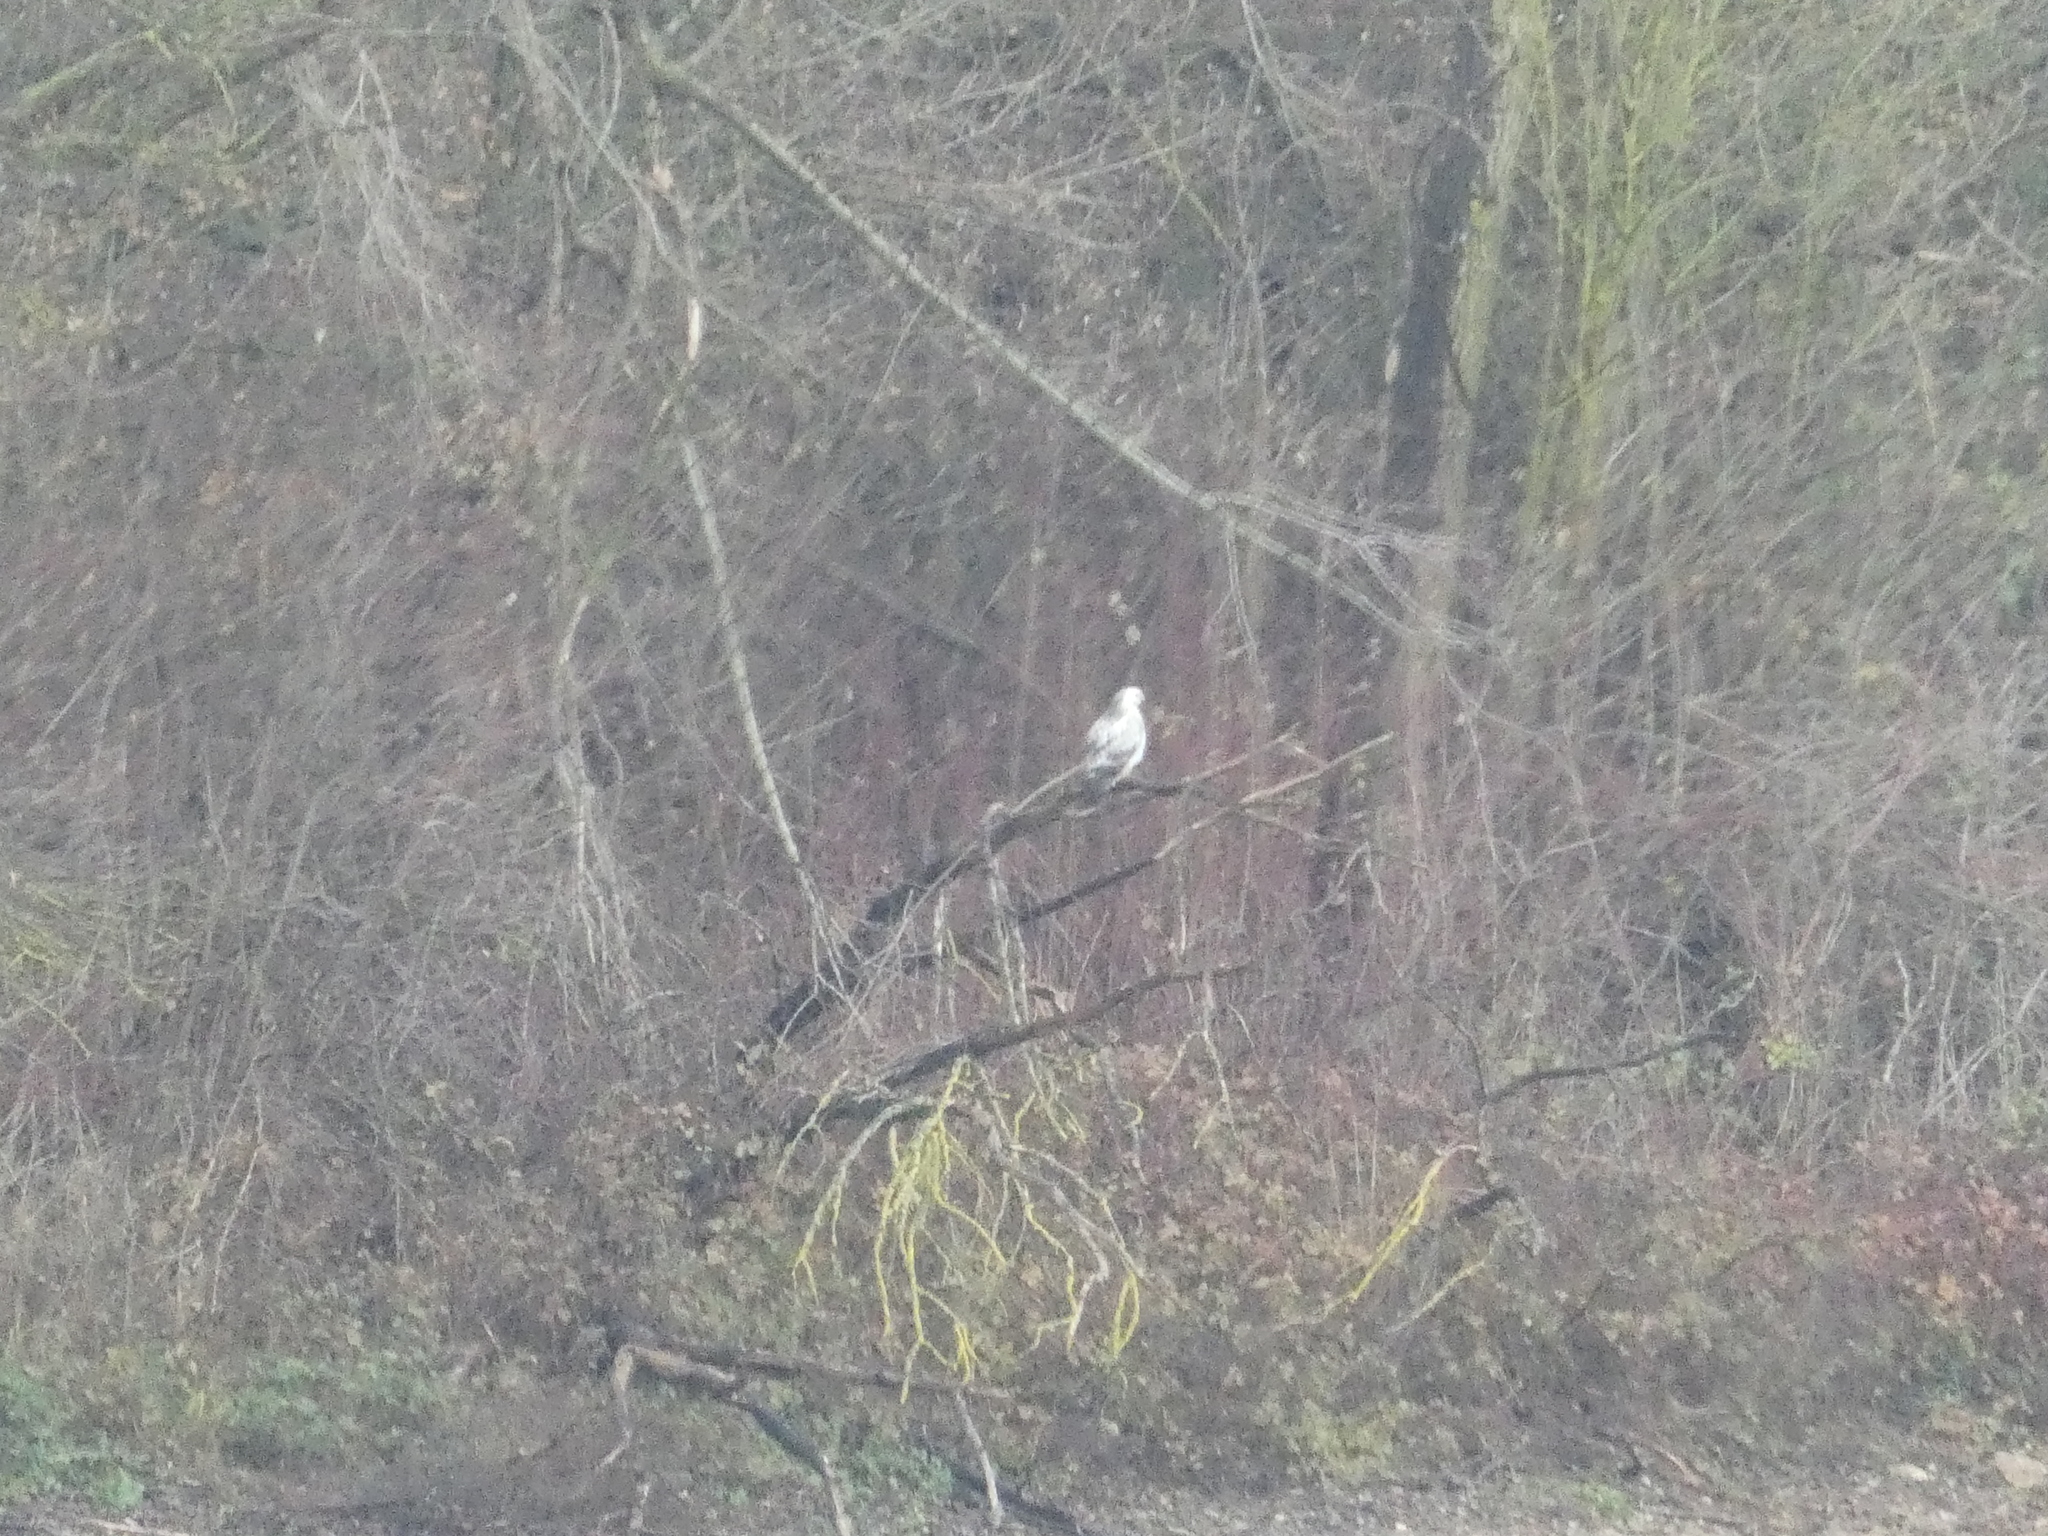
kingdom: Animalia
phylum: Chordata
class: Aves
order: Accipitriformes
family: Accipitridae
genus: Buteo
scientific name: Buteo buteo
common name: Common buzzard
